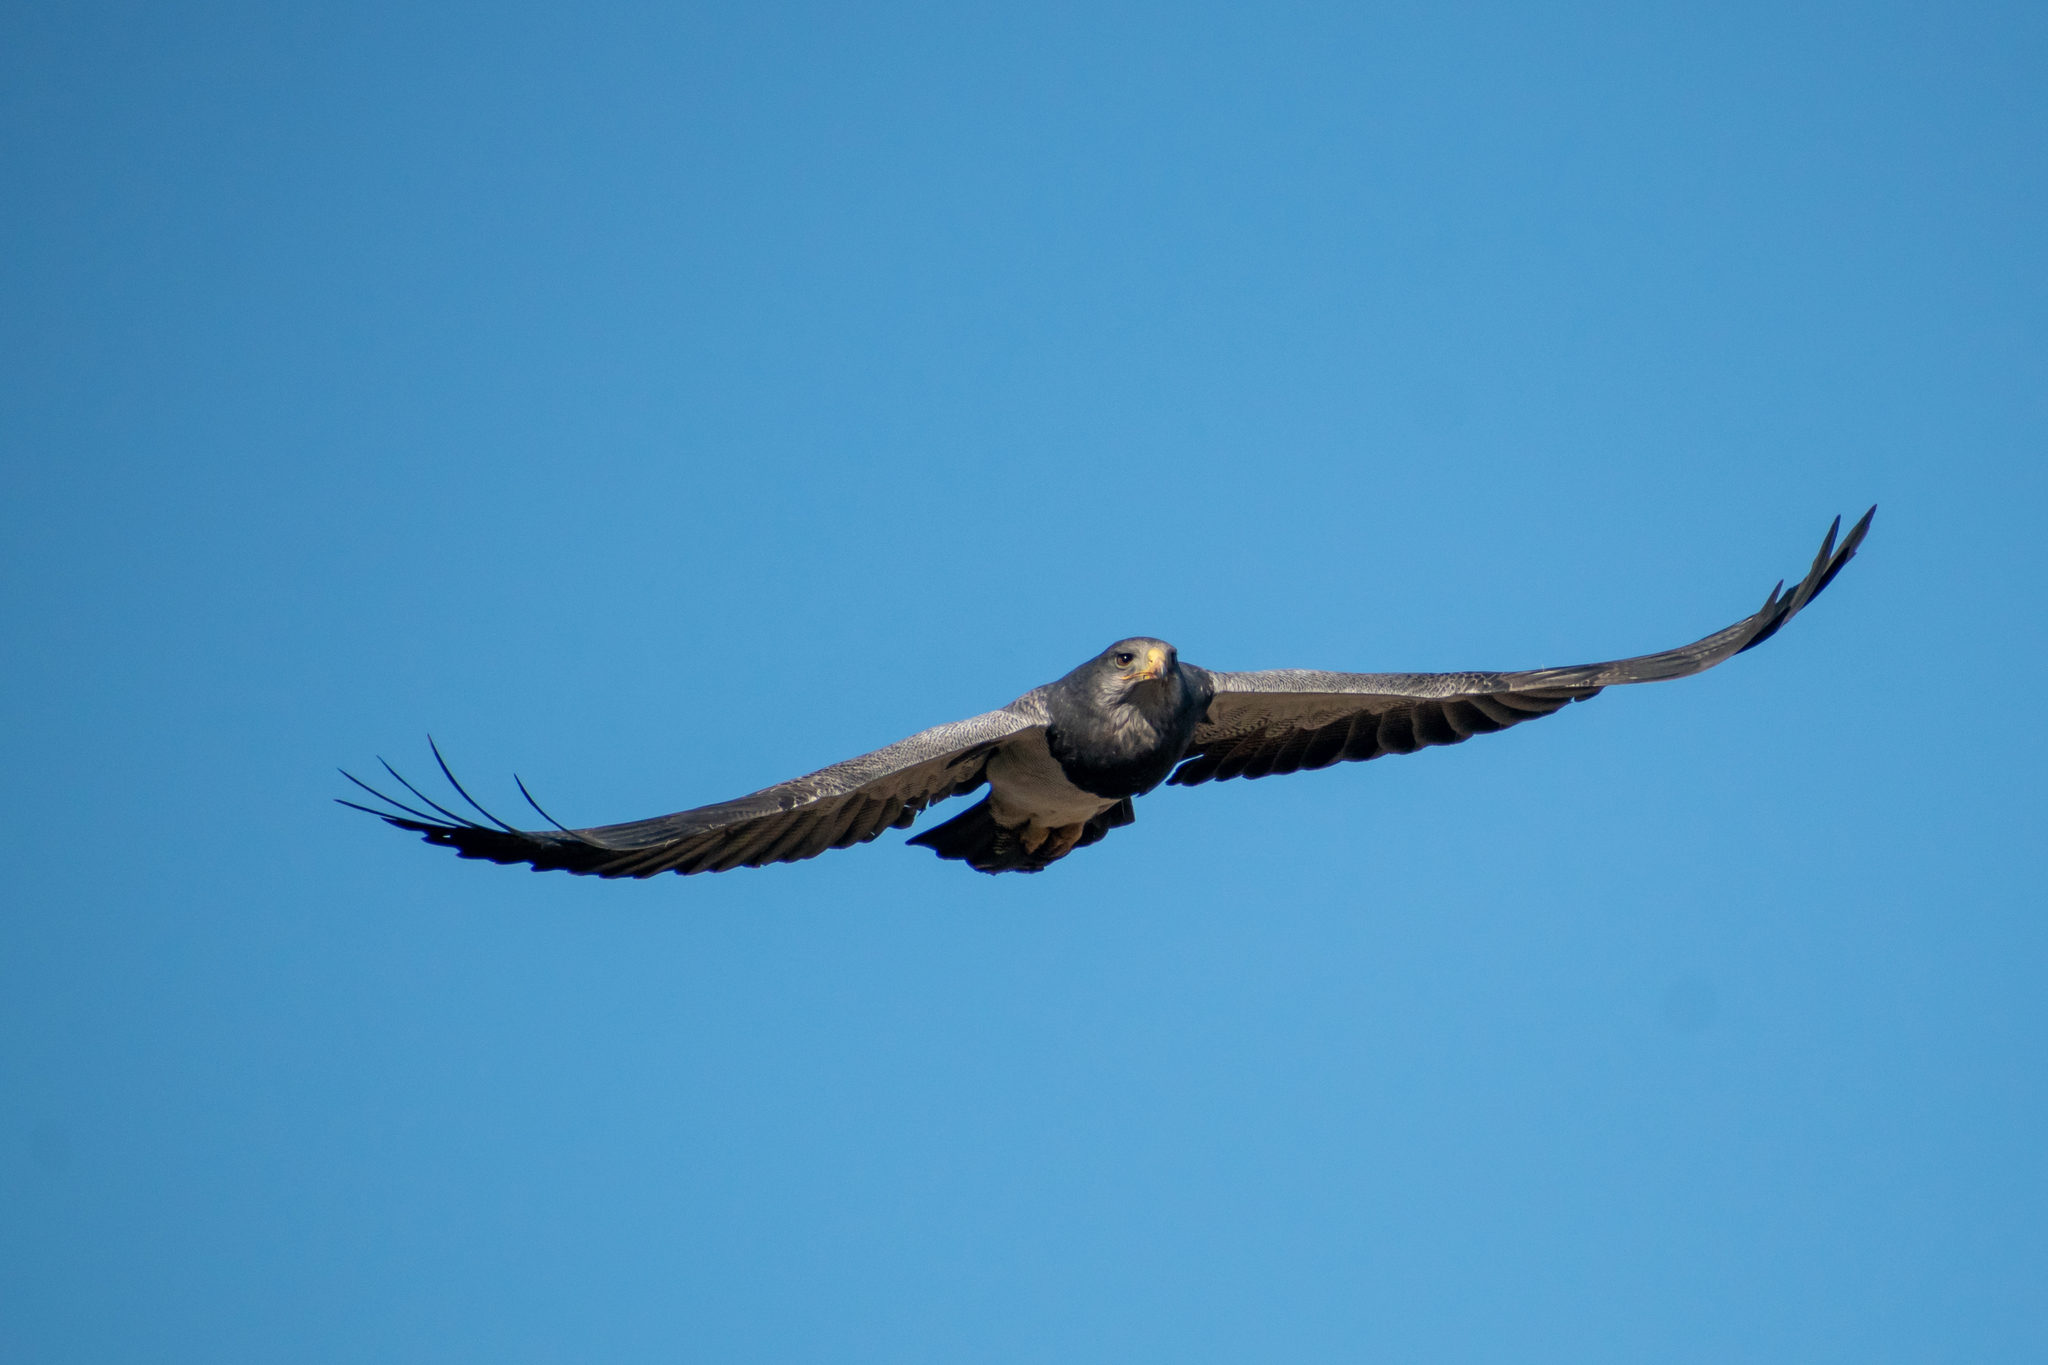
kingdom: Animalia
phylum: Chordata
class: Aves
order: Accipitriformes
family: Accipitridae
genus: Geranoaetus
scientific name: Geranoaetus melanoleucus
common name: Black-chested buzzard-eagle
